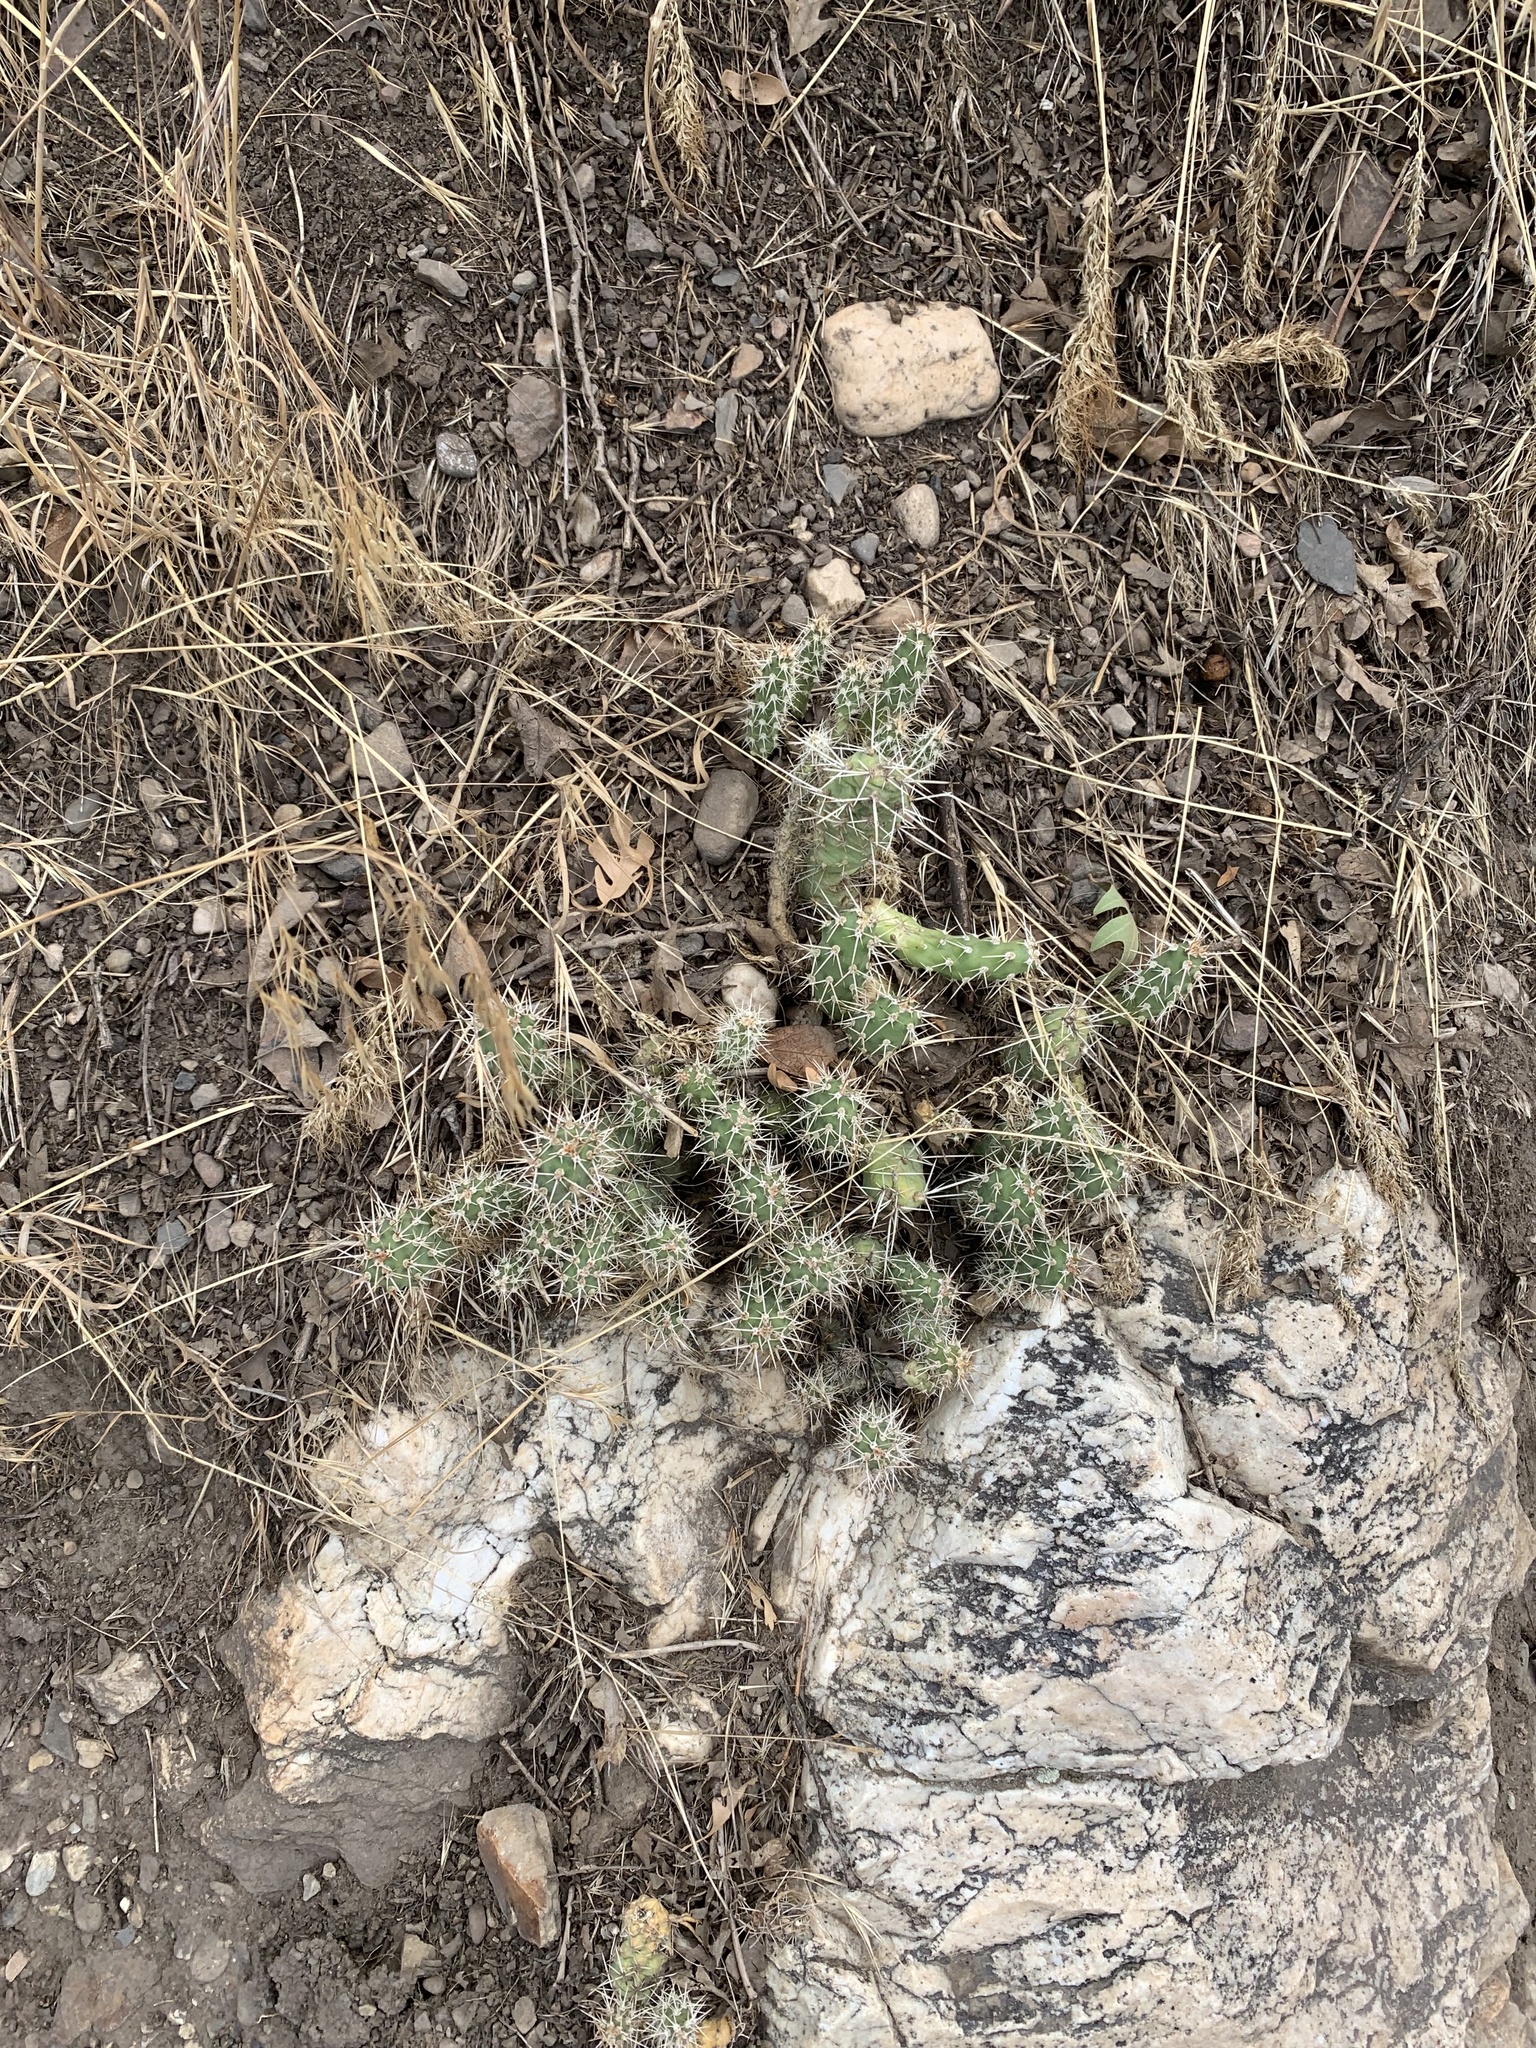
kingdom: Plantae
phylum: Tracheophyta
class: Magnoliopsida
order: Caryophyllales
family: Cactaceae
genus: Opuntia
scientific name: Opuntia fragilis
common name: Brittle cactus
